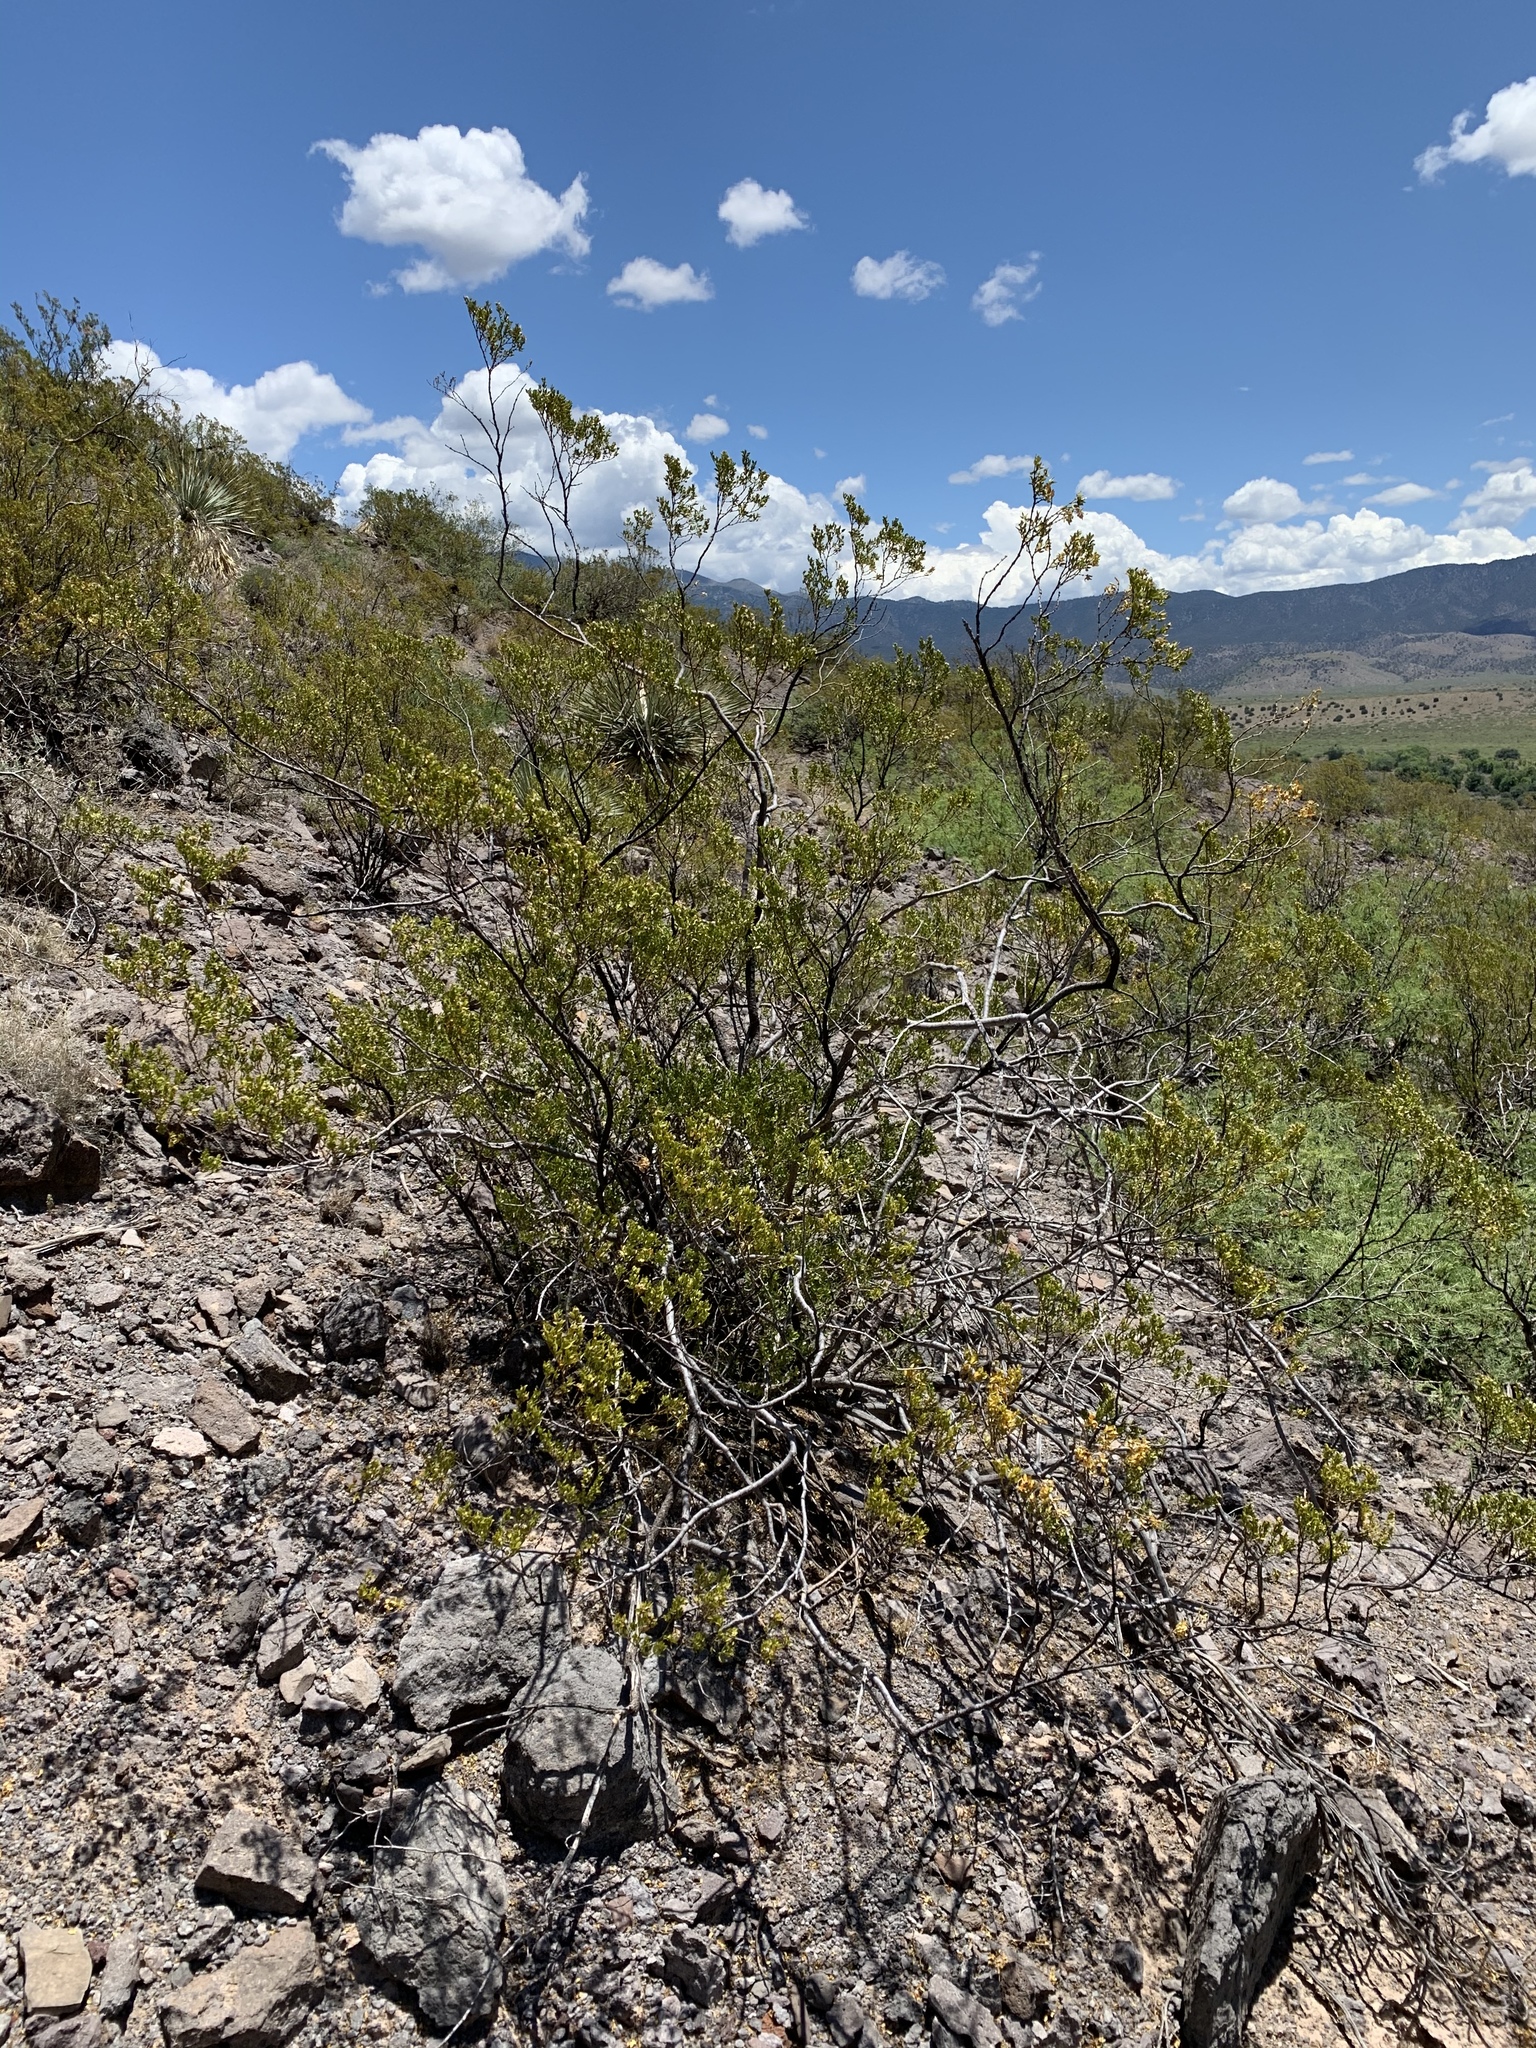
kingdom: Plantae
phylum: Tracheophyta
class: Magnoliopsida
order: Zygophyllales
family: Zygophyllaceae
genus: Larrea
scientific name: Larrea tridentata
